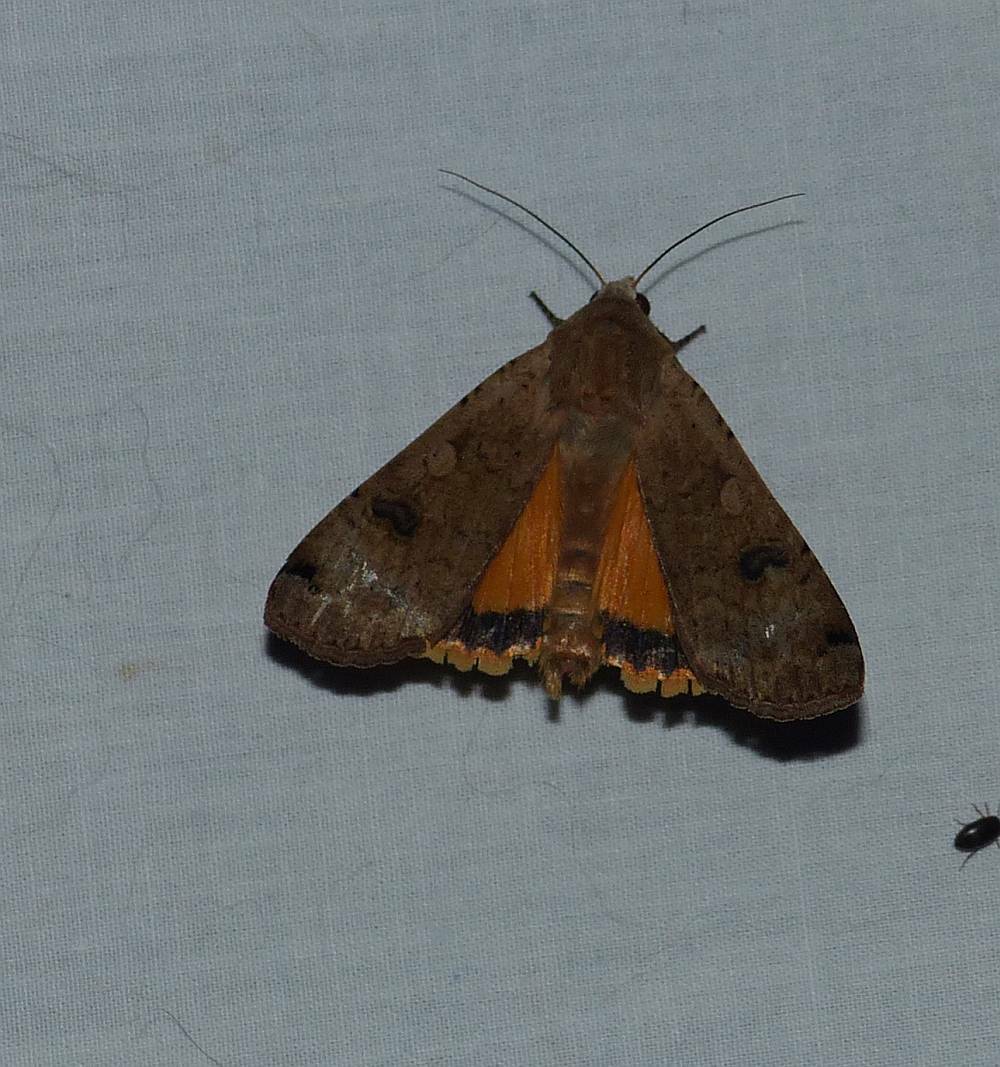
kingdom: Animalia
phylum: Arthropoda
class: Insecta
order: Lepidoptera
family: Noctuidae
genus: Noctua
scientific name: Noctua pronuba
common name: Large yellow underwing
